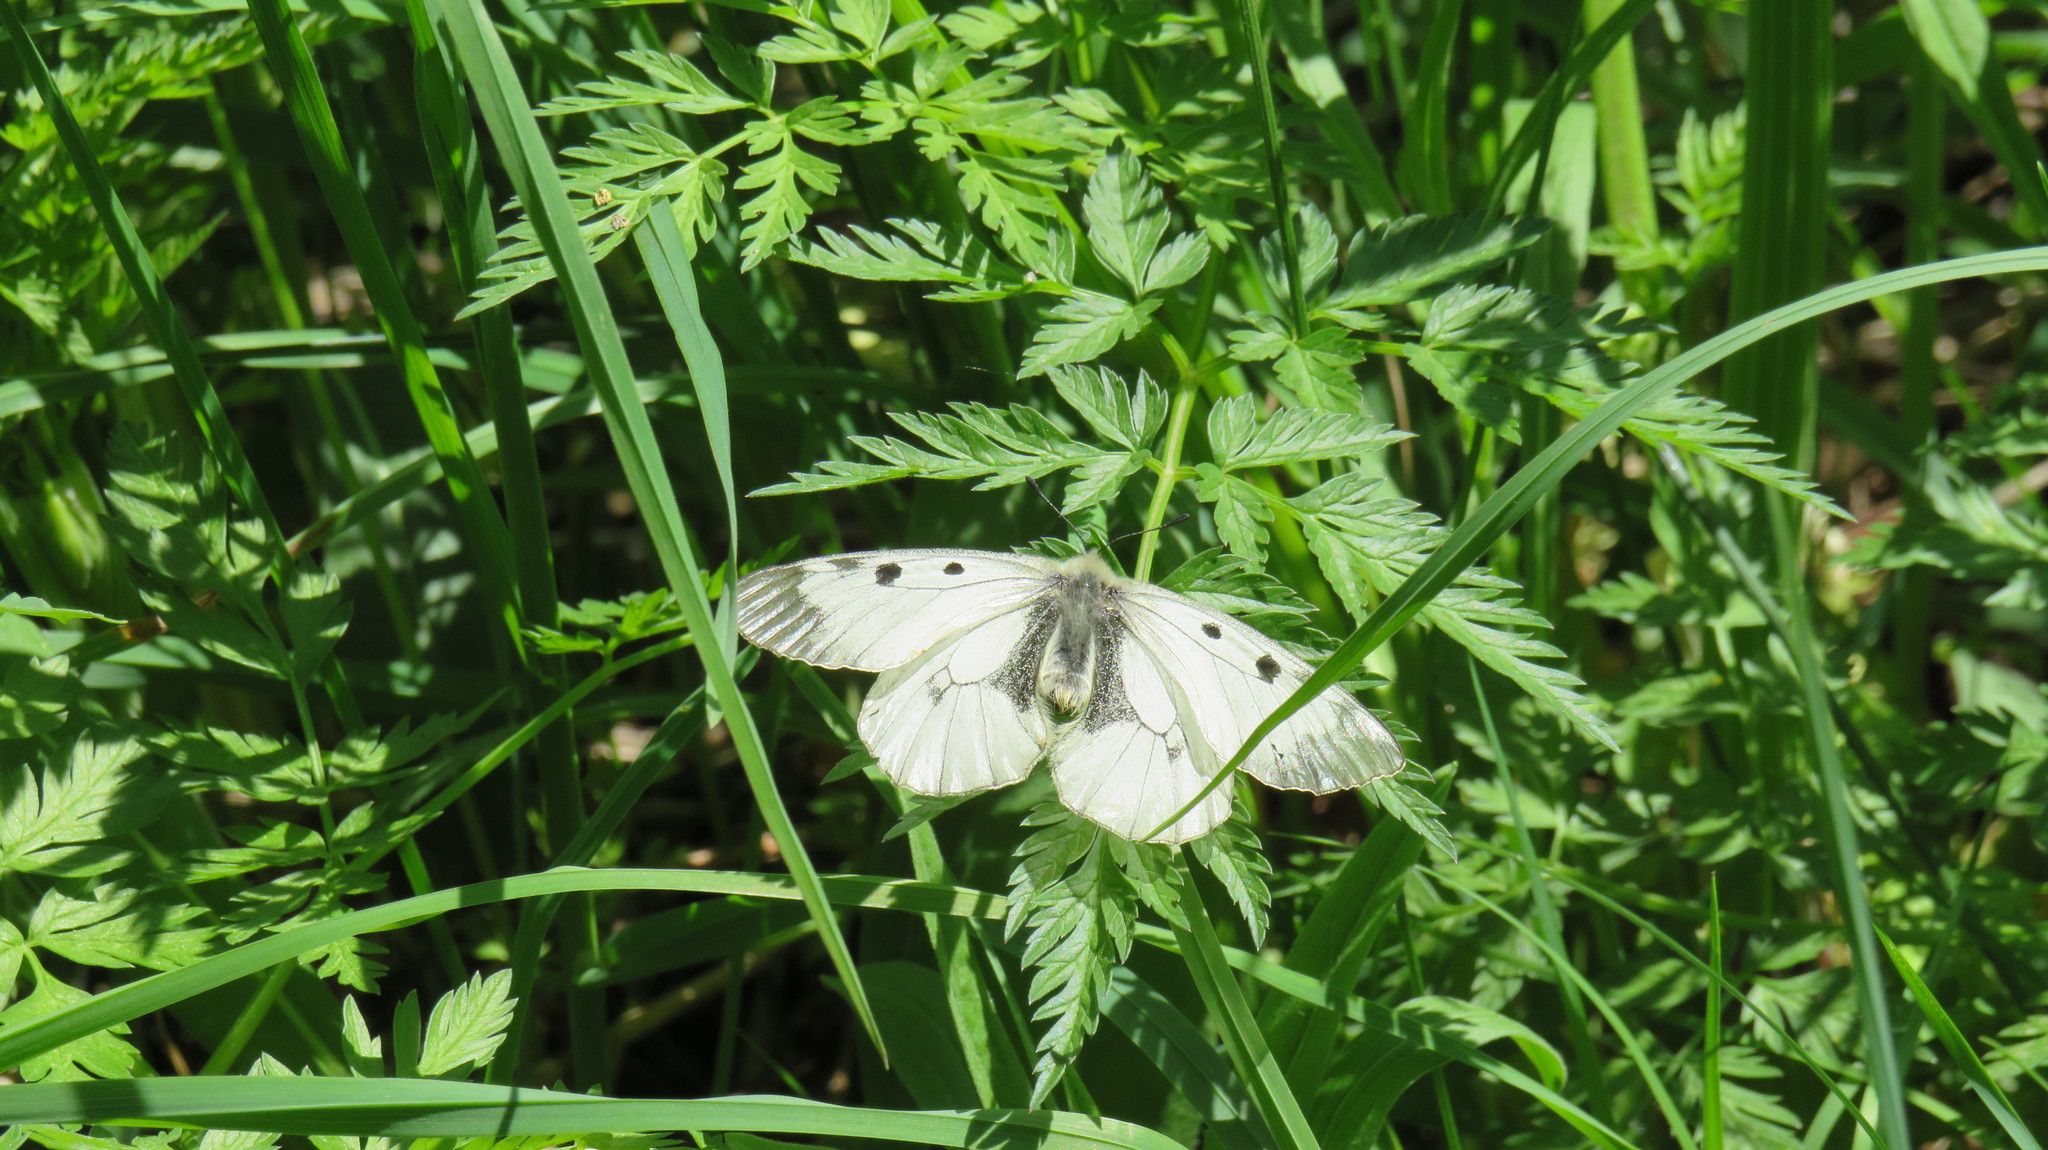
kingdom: Animalia
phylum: Arthropoda
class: Insecta
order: Lepidoptera
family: Papilionidae
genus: Parnassius
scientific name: Parnassius mnemosyne
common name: Clouded apollo
